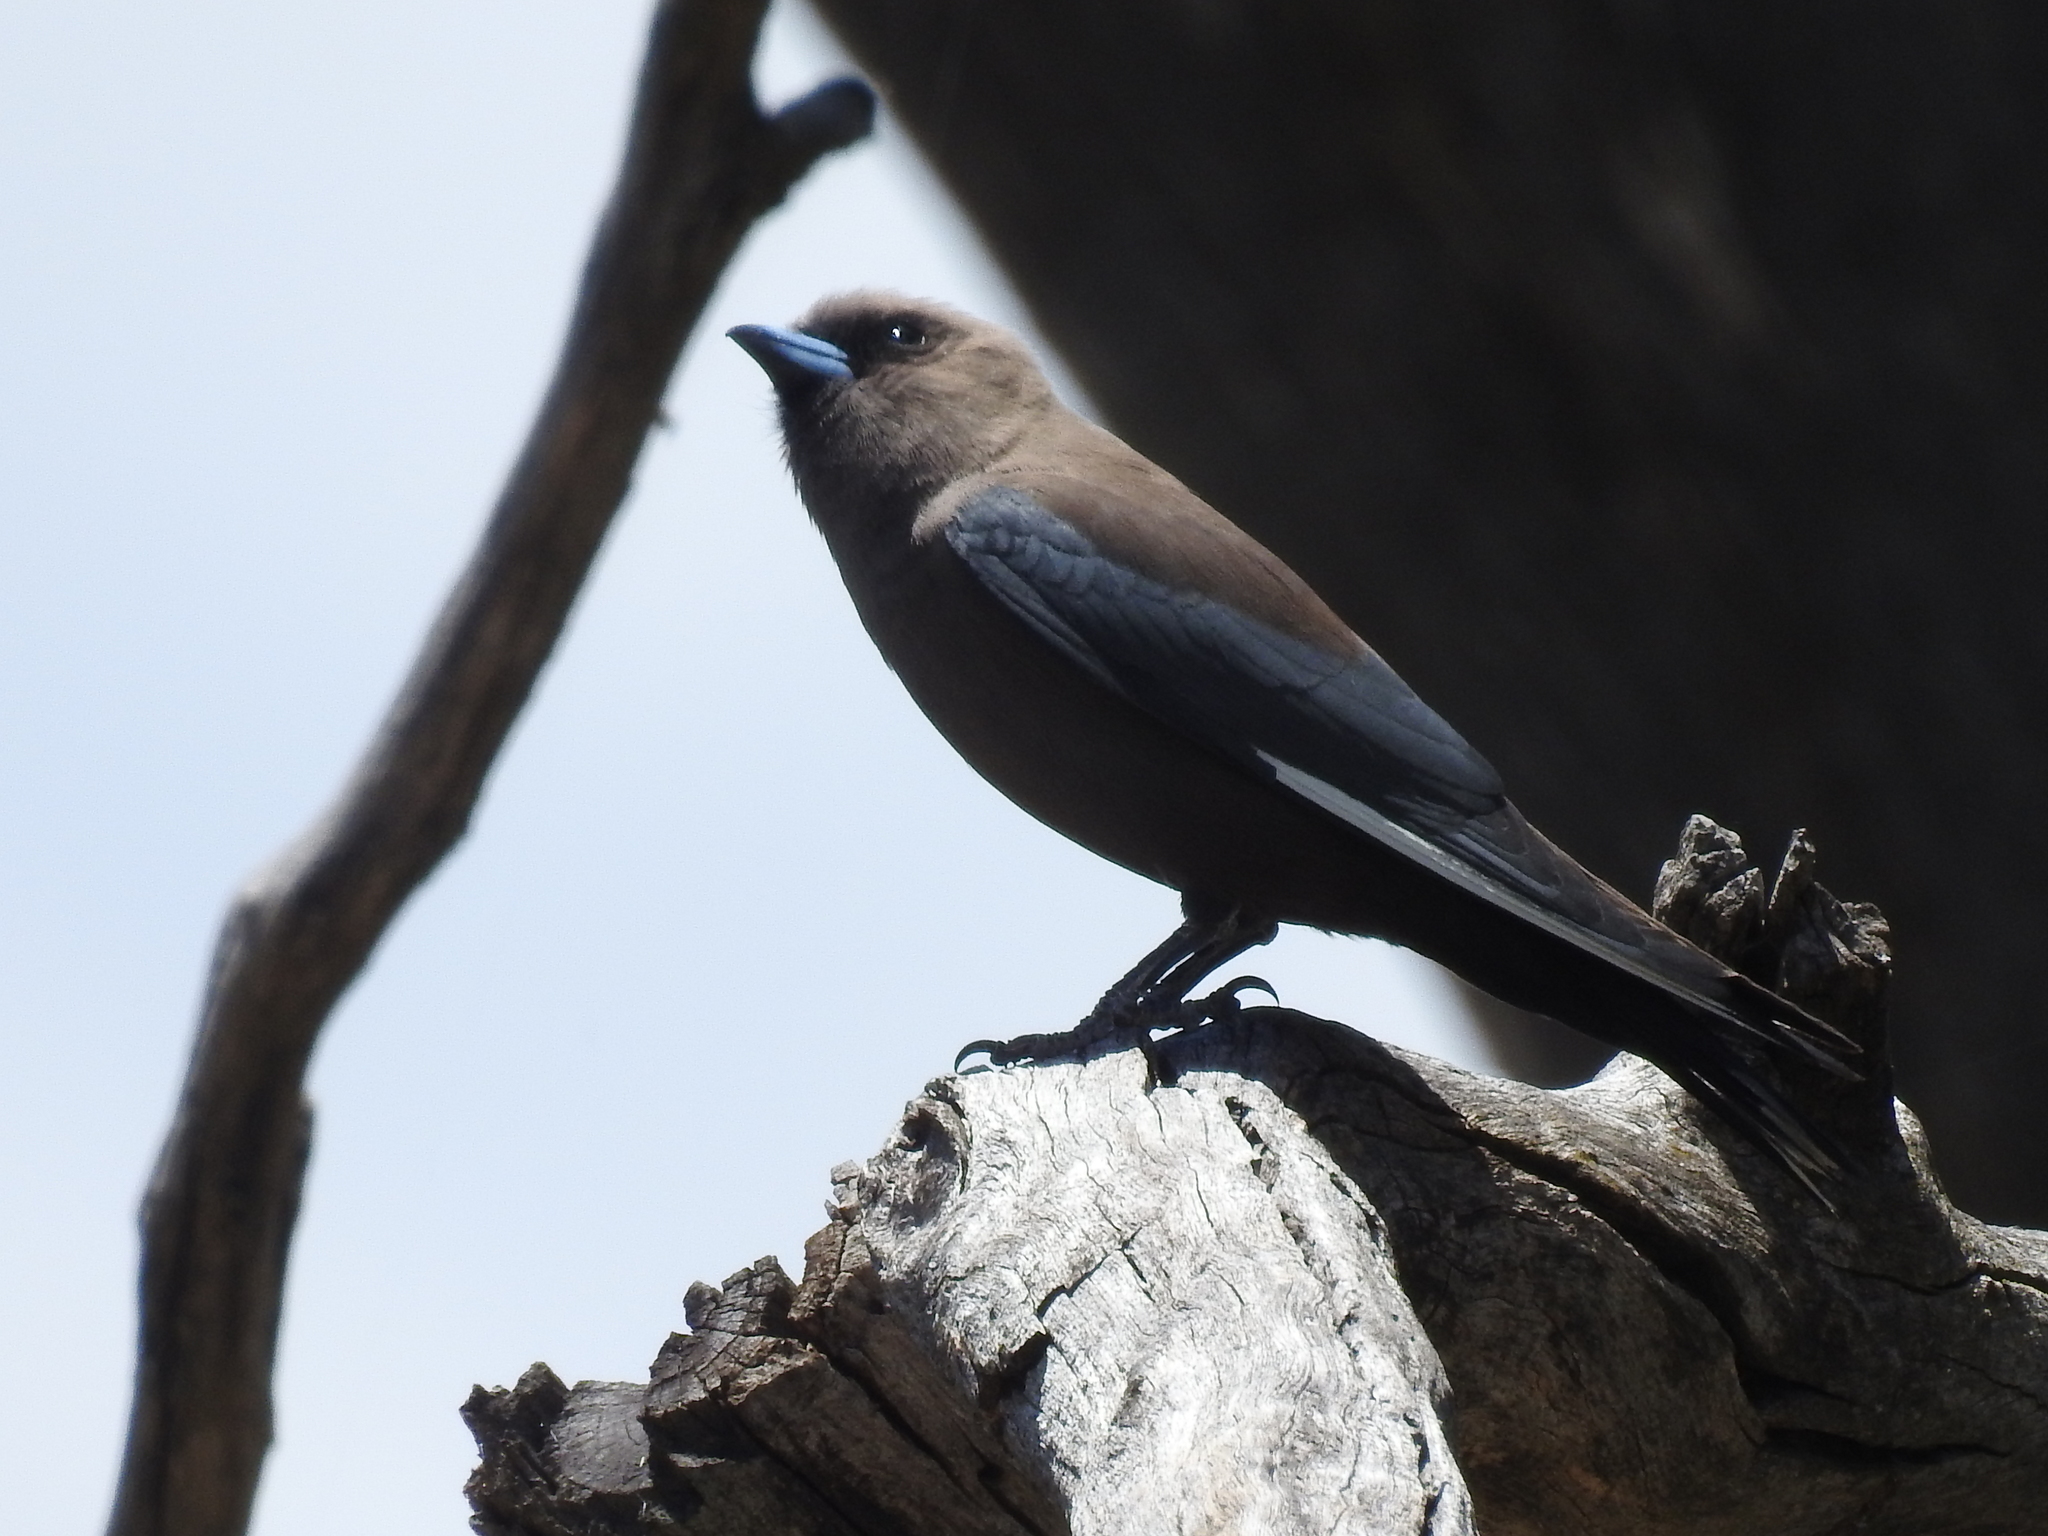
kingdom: Animalia
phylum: Chordata
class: Aves
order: Passeriformes
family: Artamidae
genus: Artamus
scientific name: Artamus cyanopterus
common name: Dusky woodswallow
